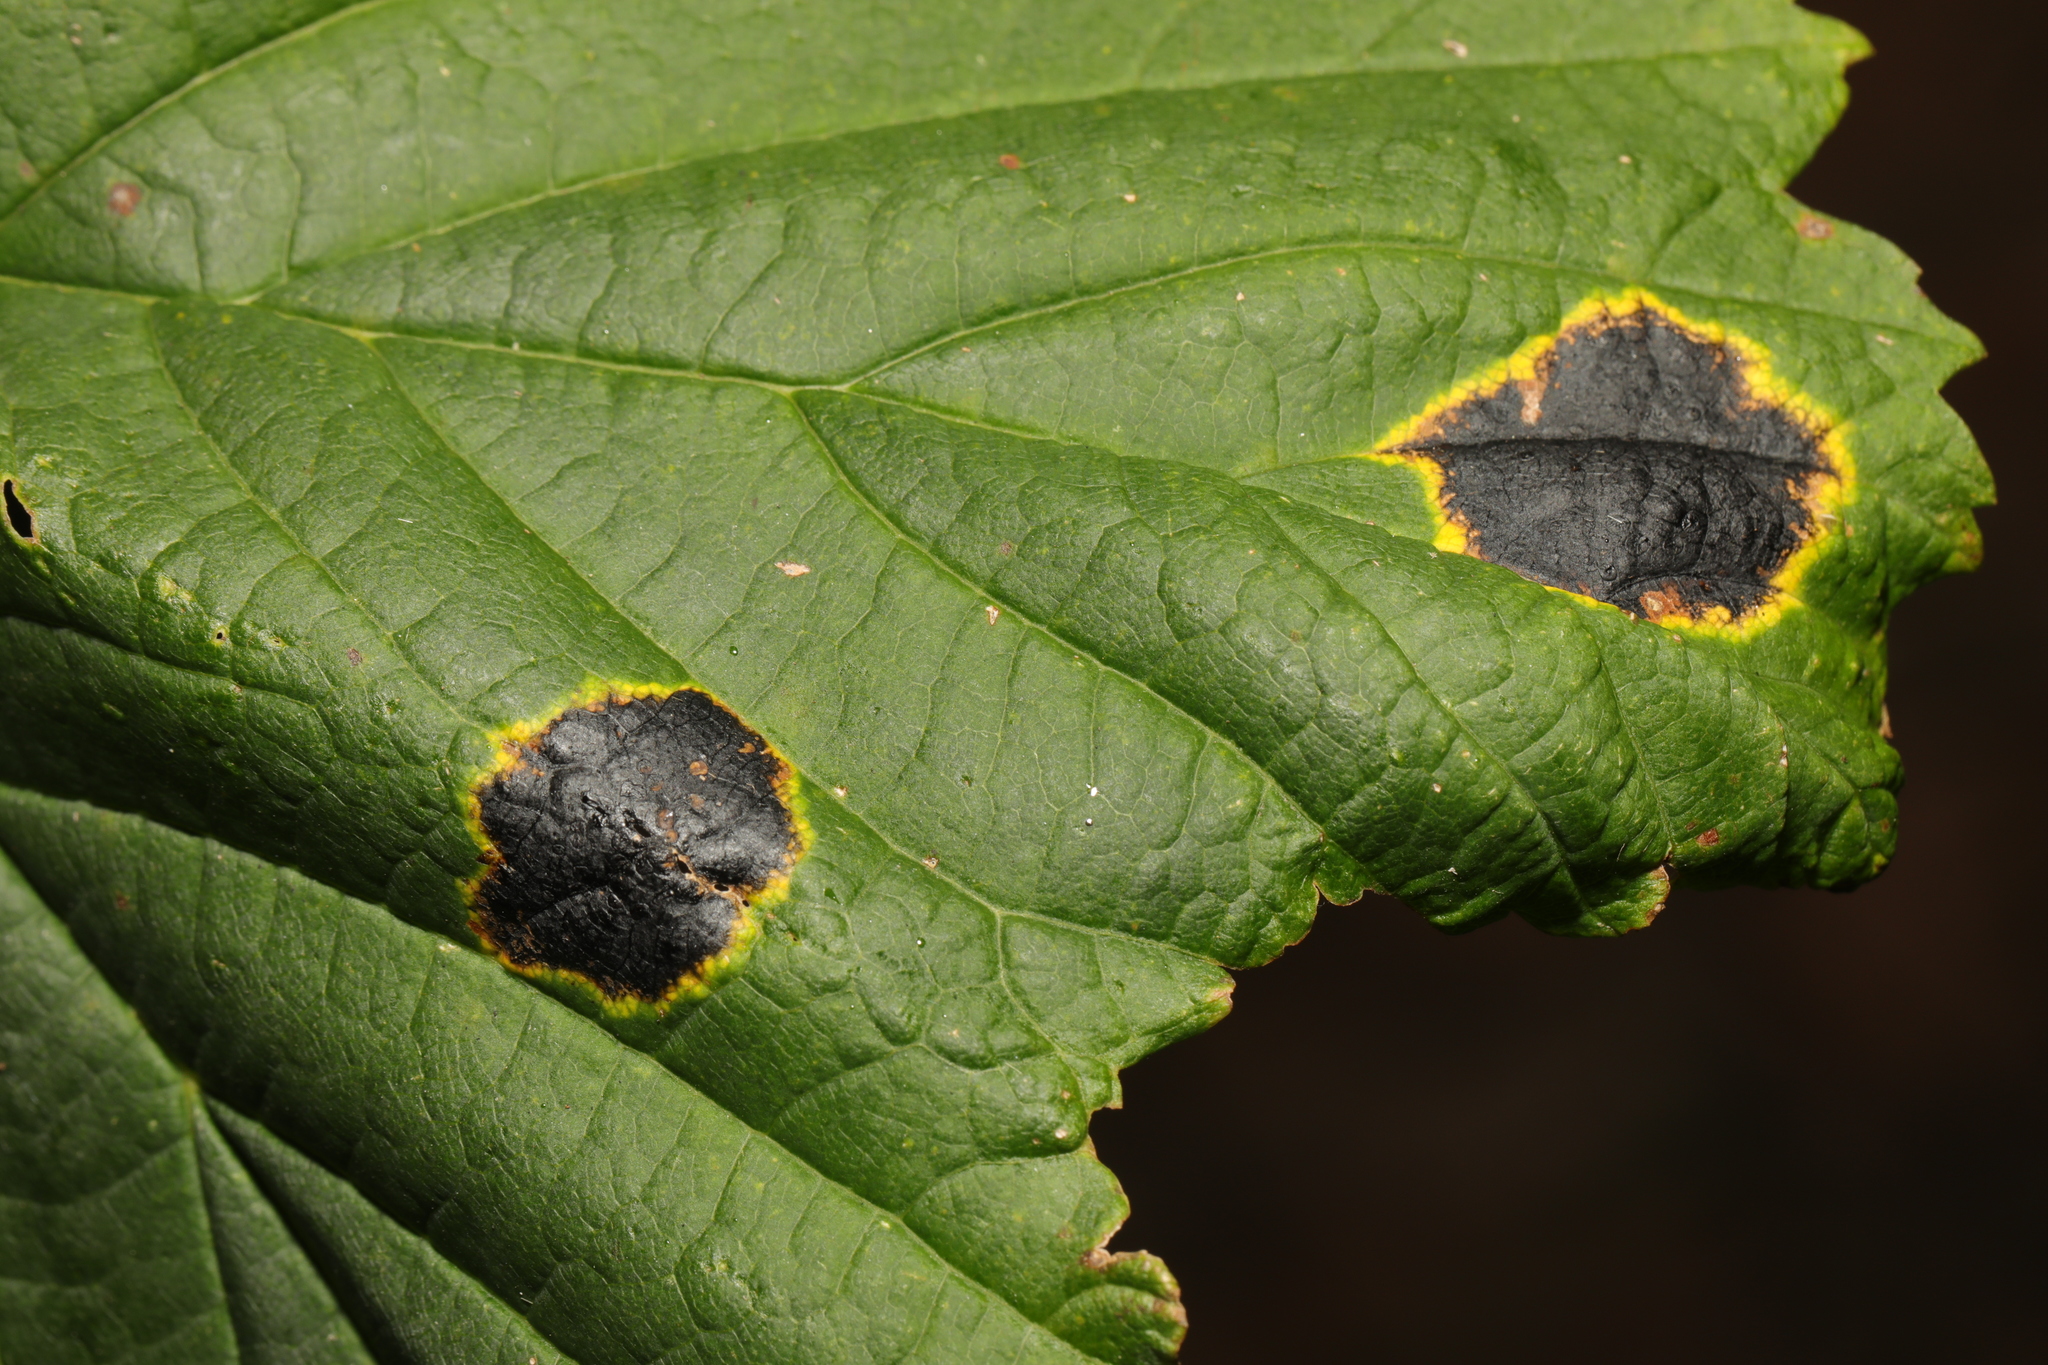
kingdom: Fungi
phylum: Ascomycota
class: Leotiomycetes
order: Rhytismatales
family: Rhytismataceae
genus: Rhytisma
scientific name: Rhytisma acerinum
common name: European tar spot
